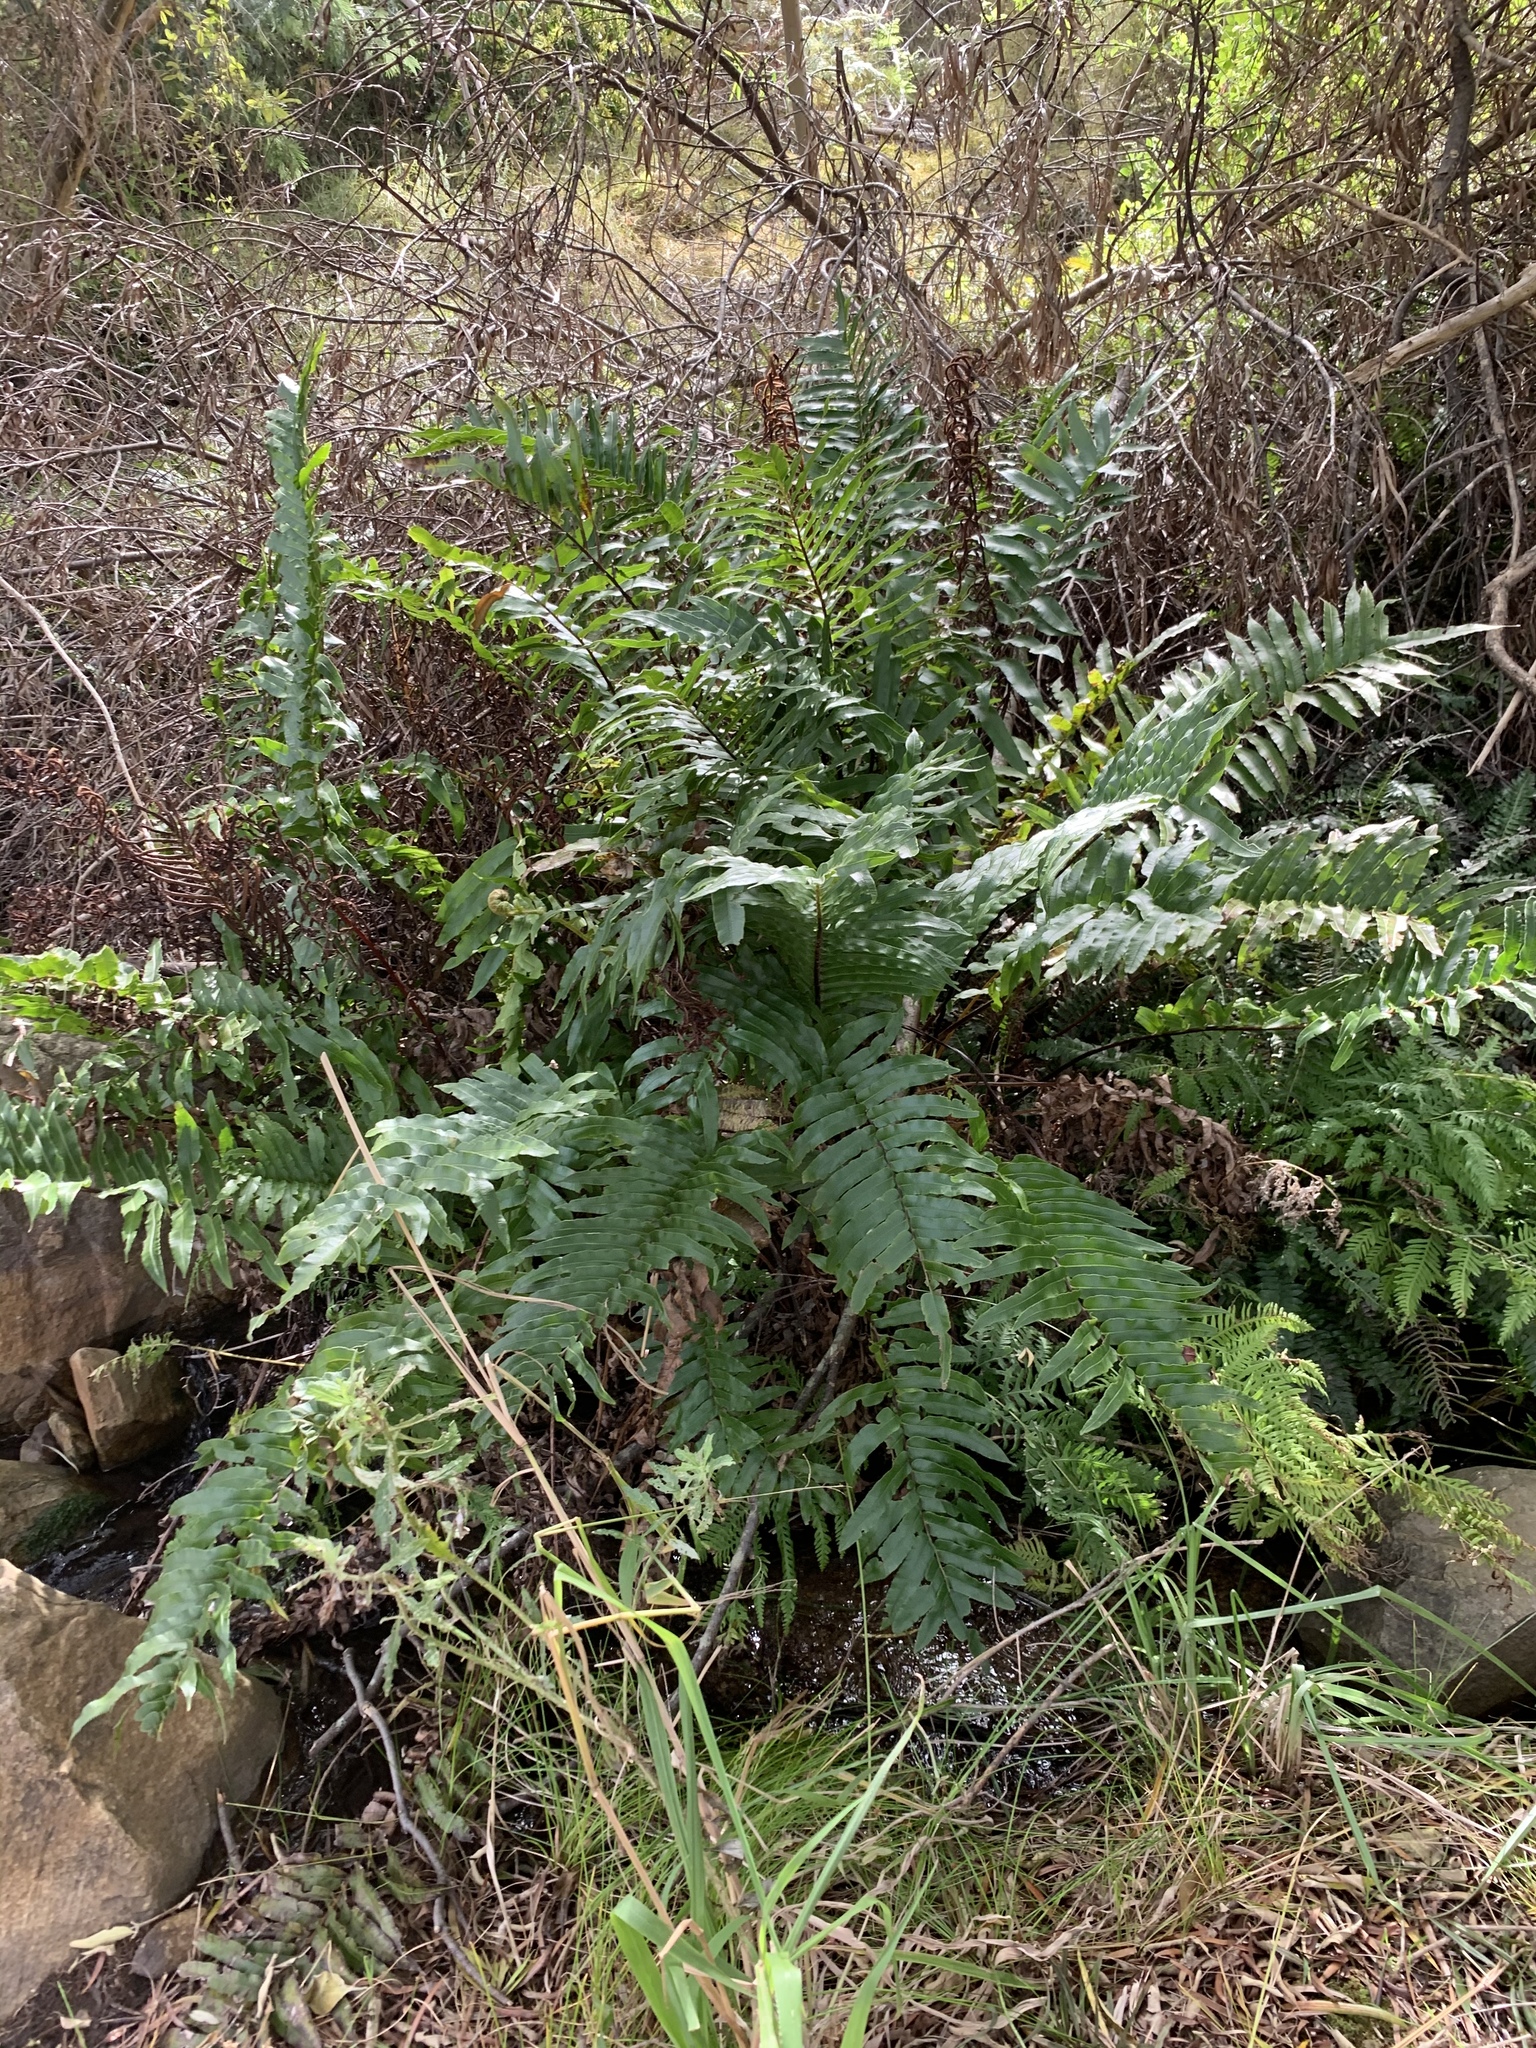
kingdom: Plantae
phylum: Tracheophyta
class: Polypodiopsida
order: Polypodiales
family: Blechnaceae
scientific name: Blechnaceae
